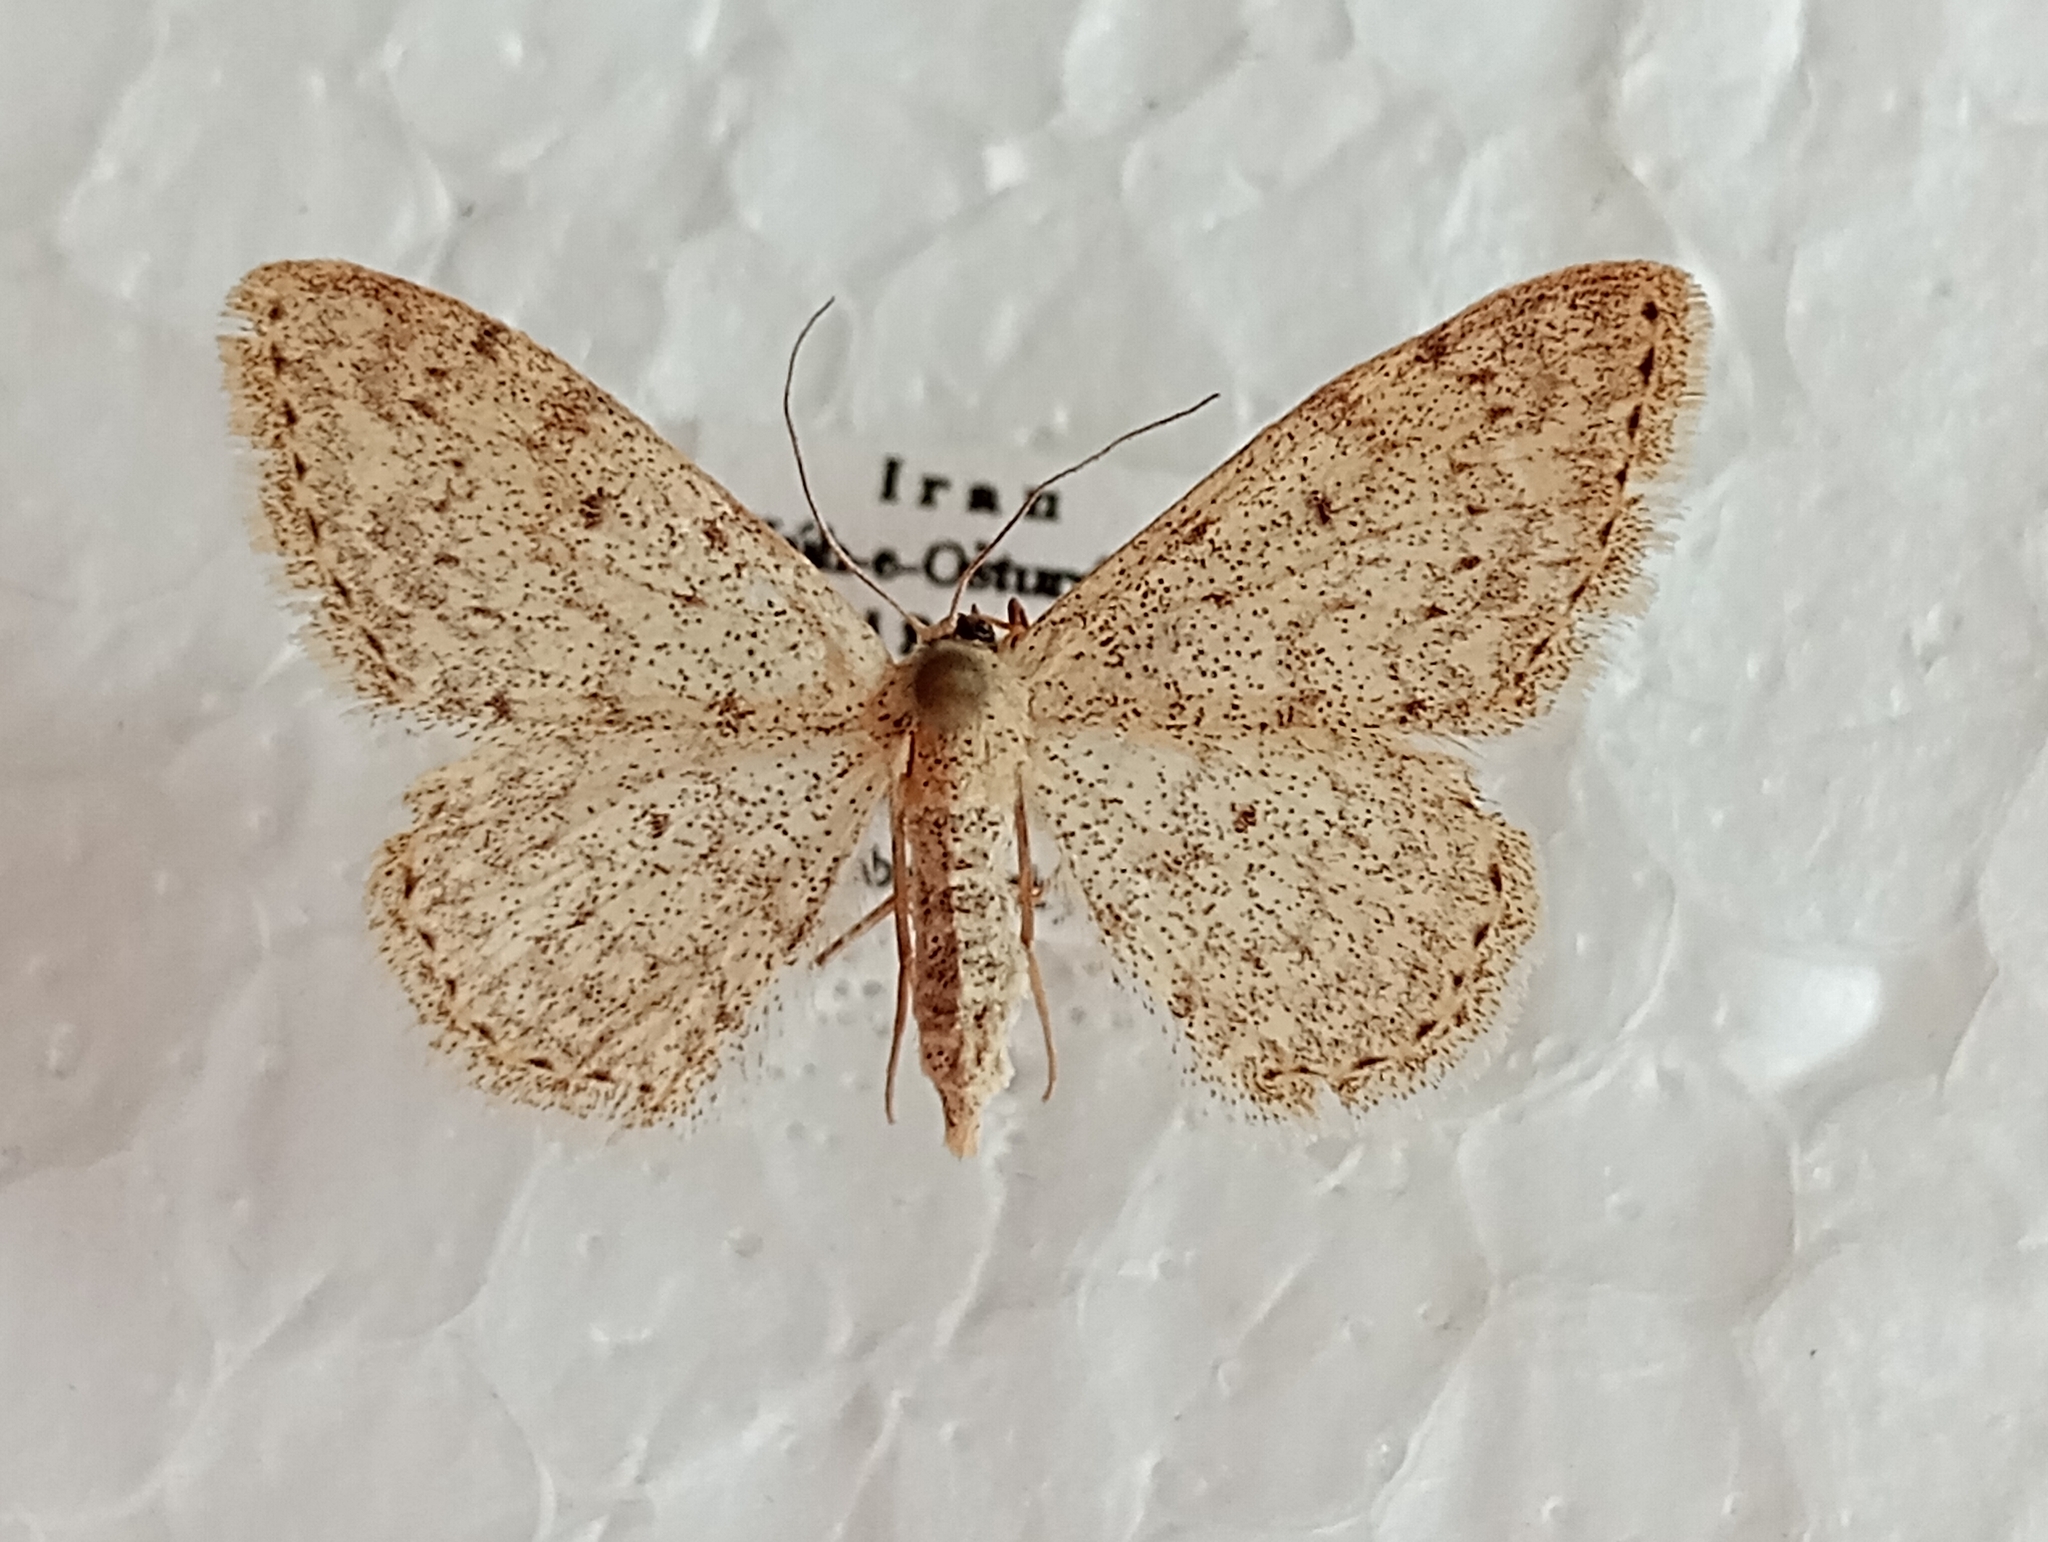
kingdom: Animalia
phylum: Arthropoda
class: Insecta
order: Lepidoptera
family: Geometridae
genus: Scopula
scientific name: Scopula marginepunctata
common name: Mullein wave
